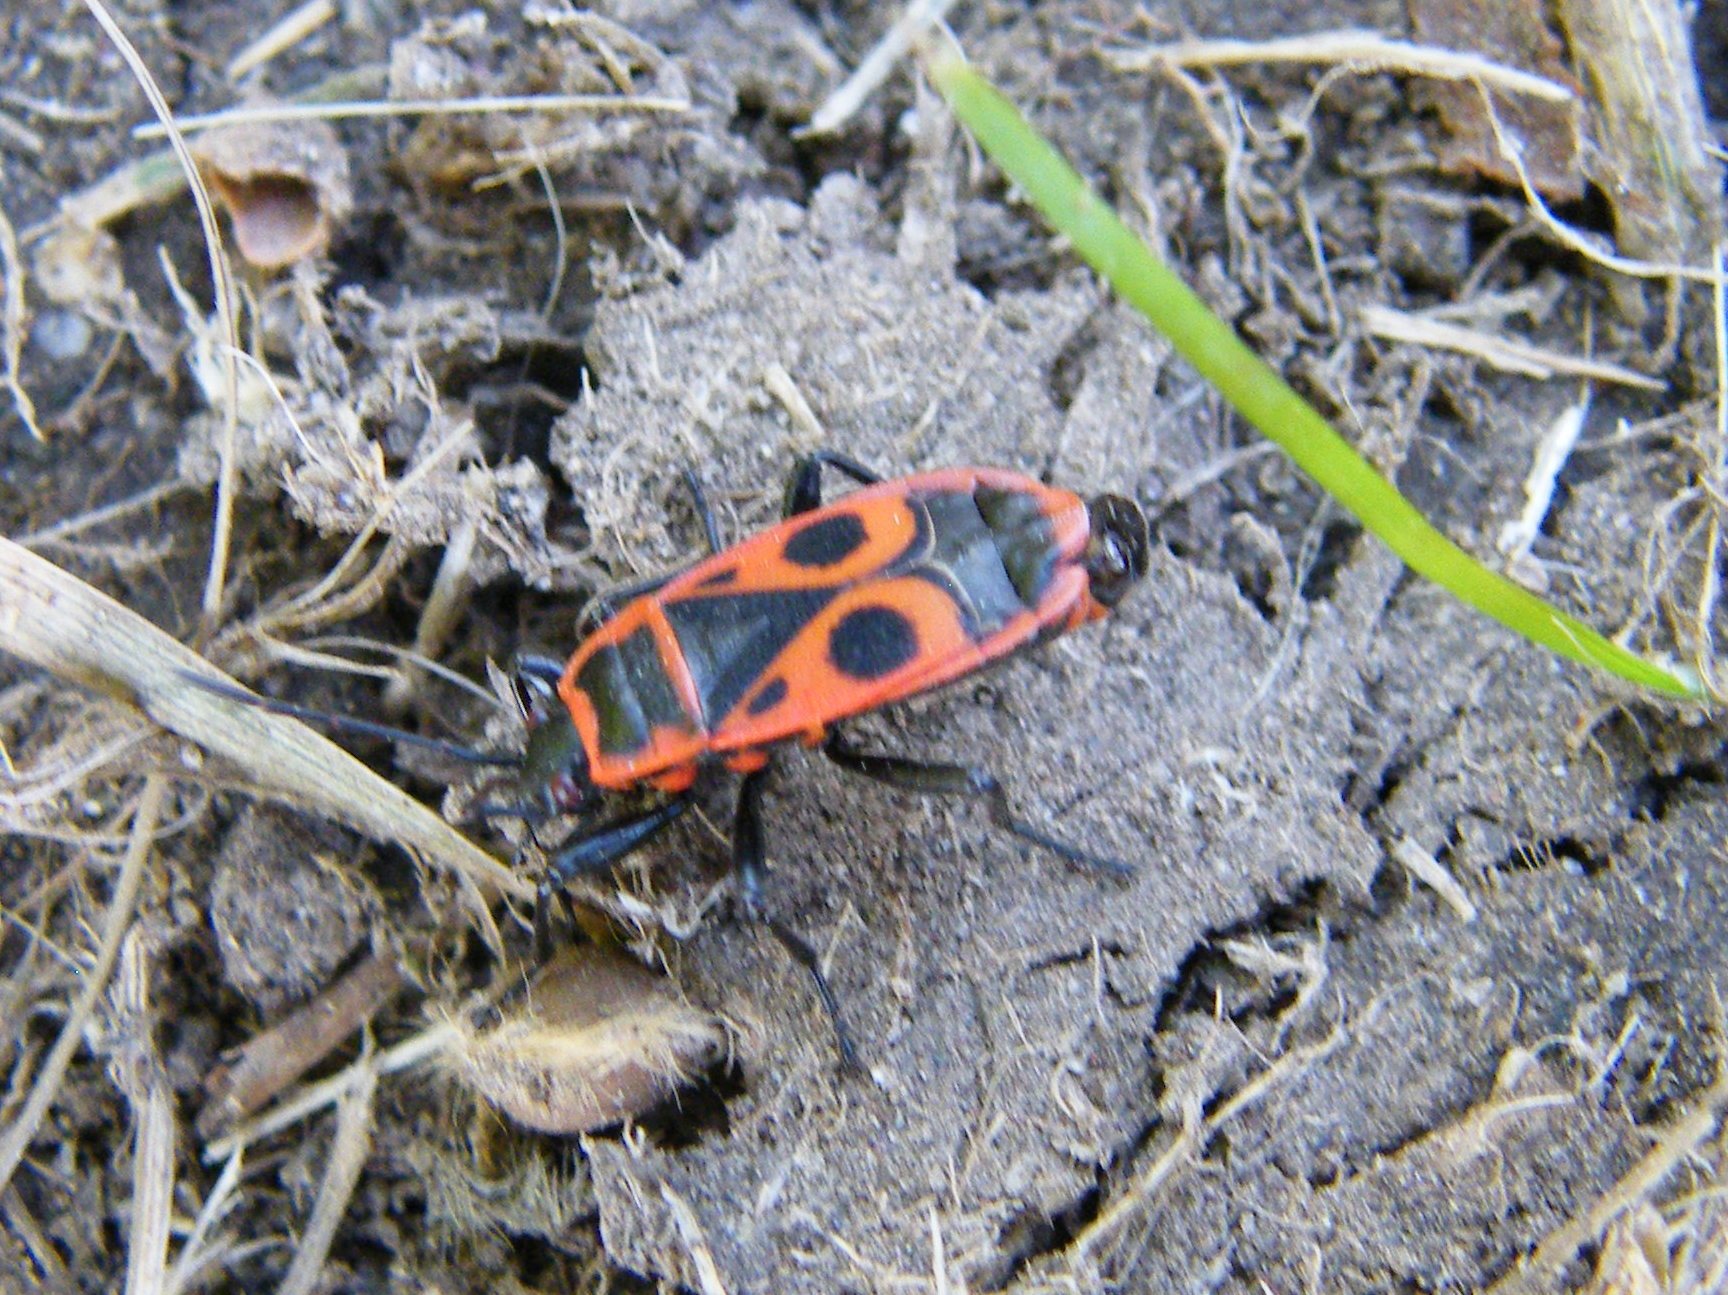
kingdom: Animalia
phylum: Arthropoda
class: Insecta
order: Hemiptera
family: Pyrrhocoridae
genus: Pyrrhocoris
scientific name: Pyrrhocoris apterus
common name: Firebug
